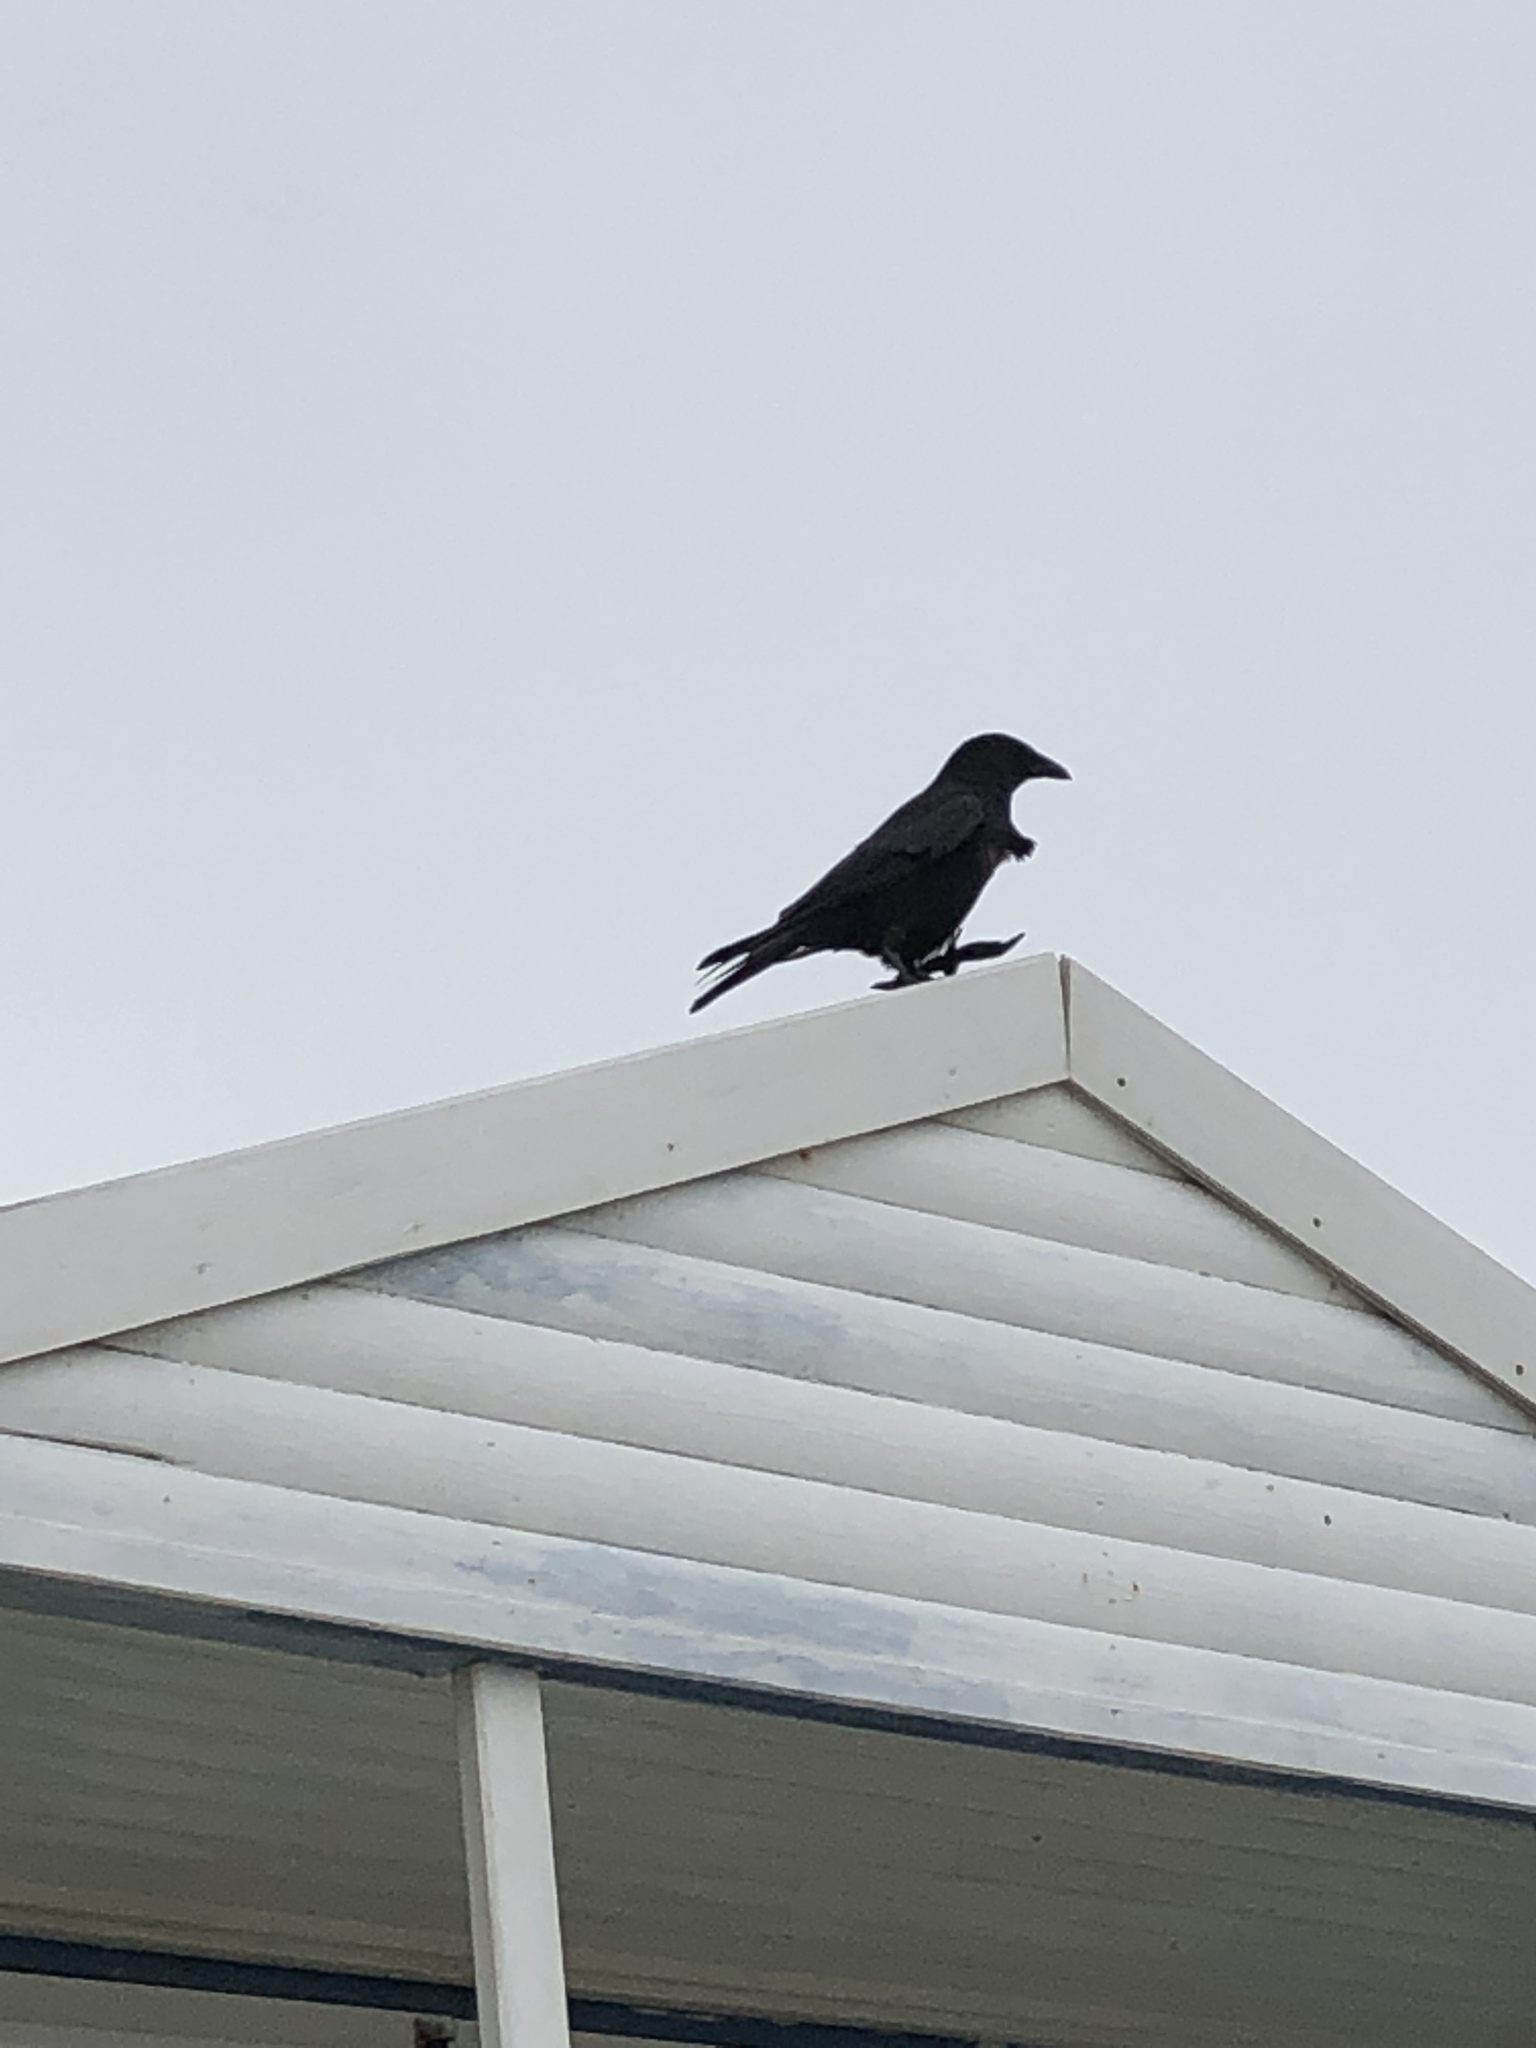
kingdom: Animalia
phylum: Chordata
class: Aves
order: Passeriformes
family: Corvidae
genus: Corvus
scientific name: Corvus corone
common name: Carrion crow
